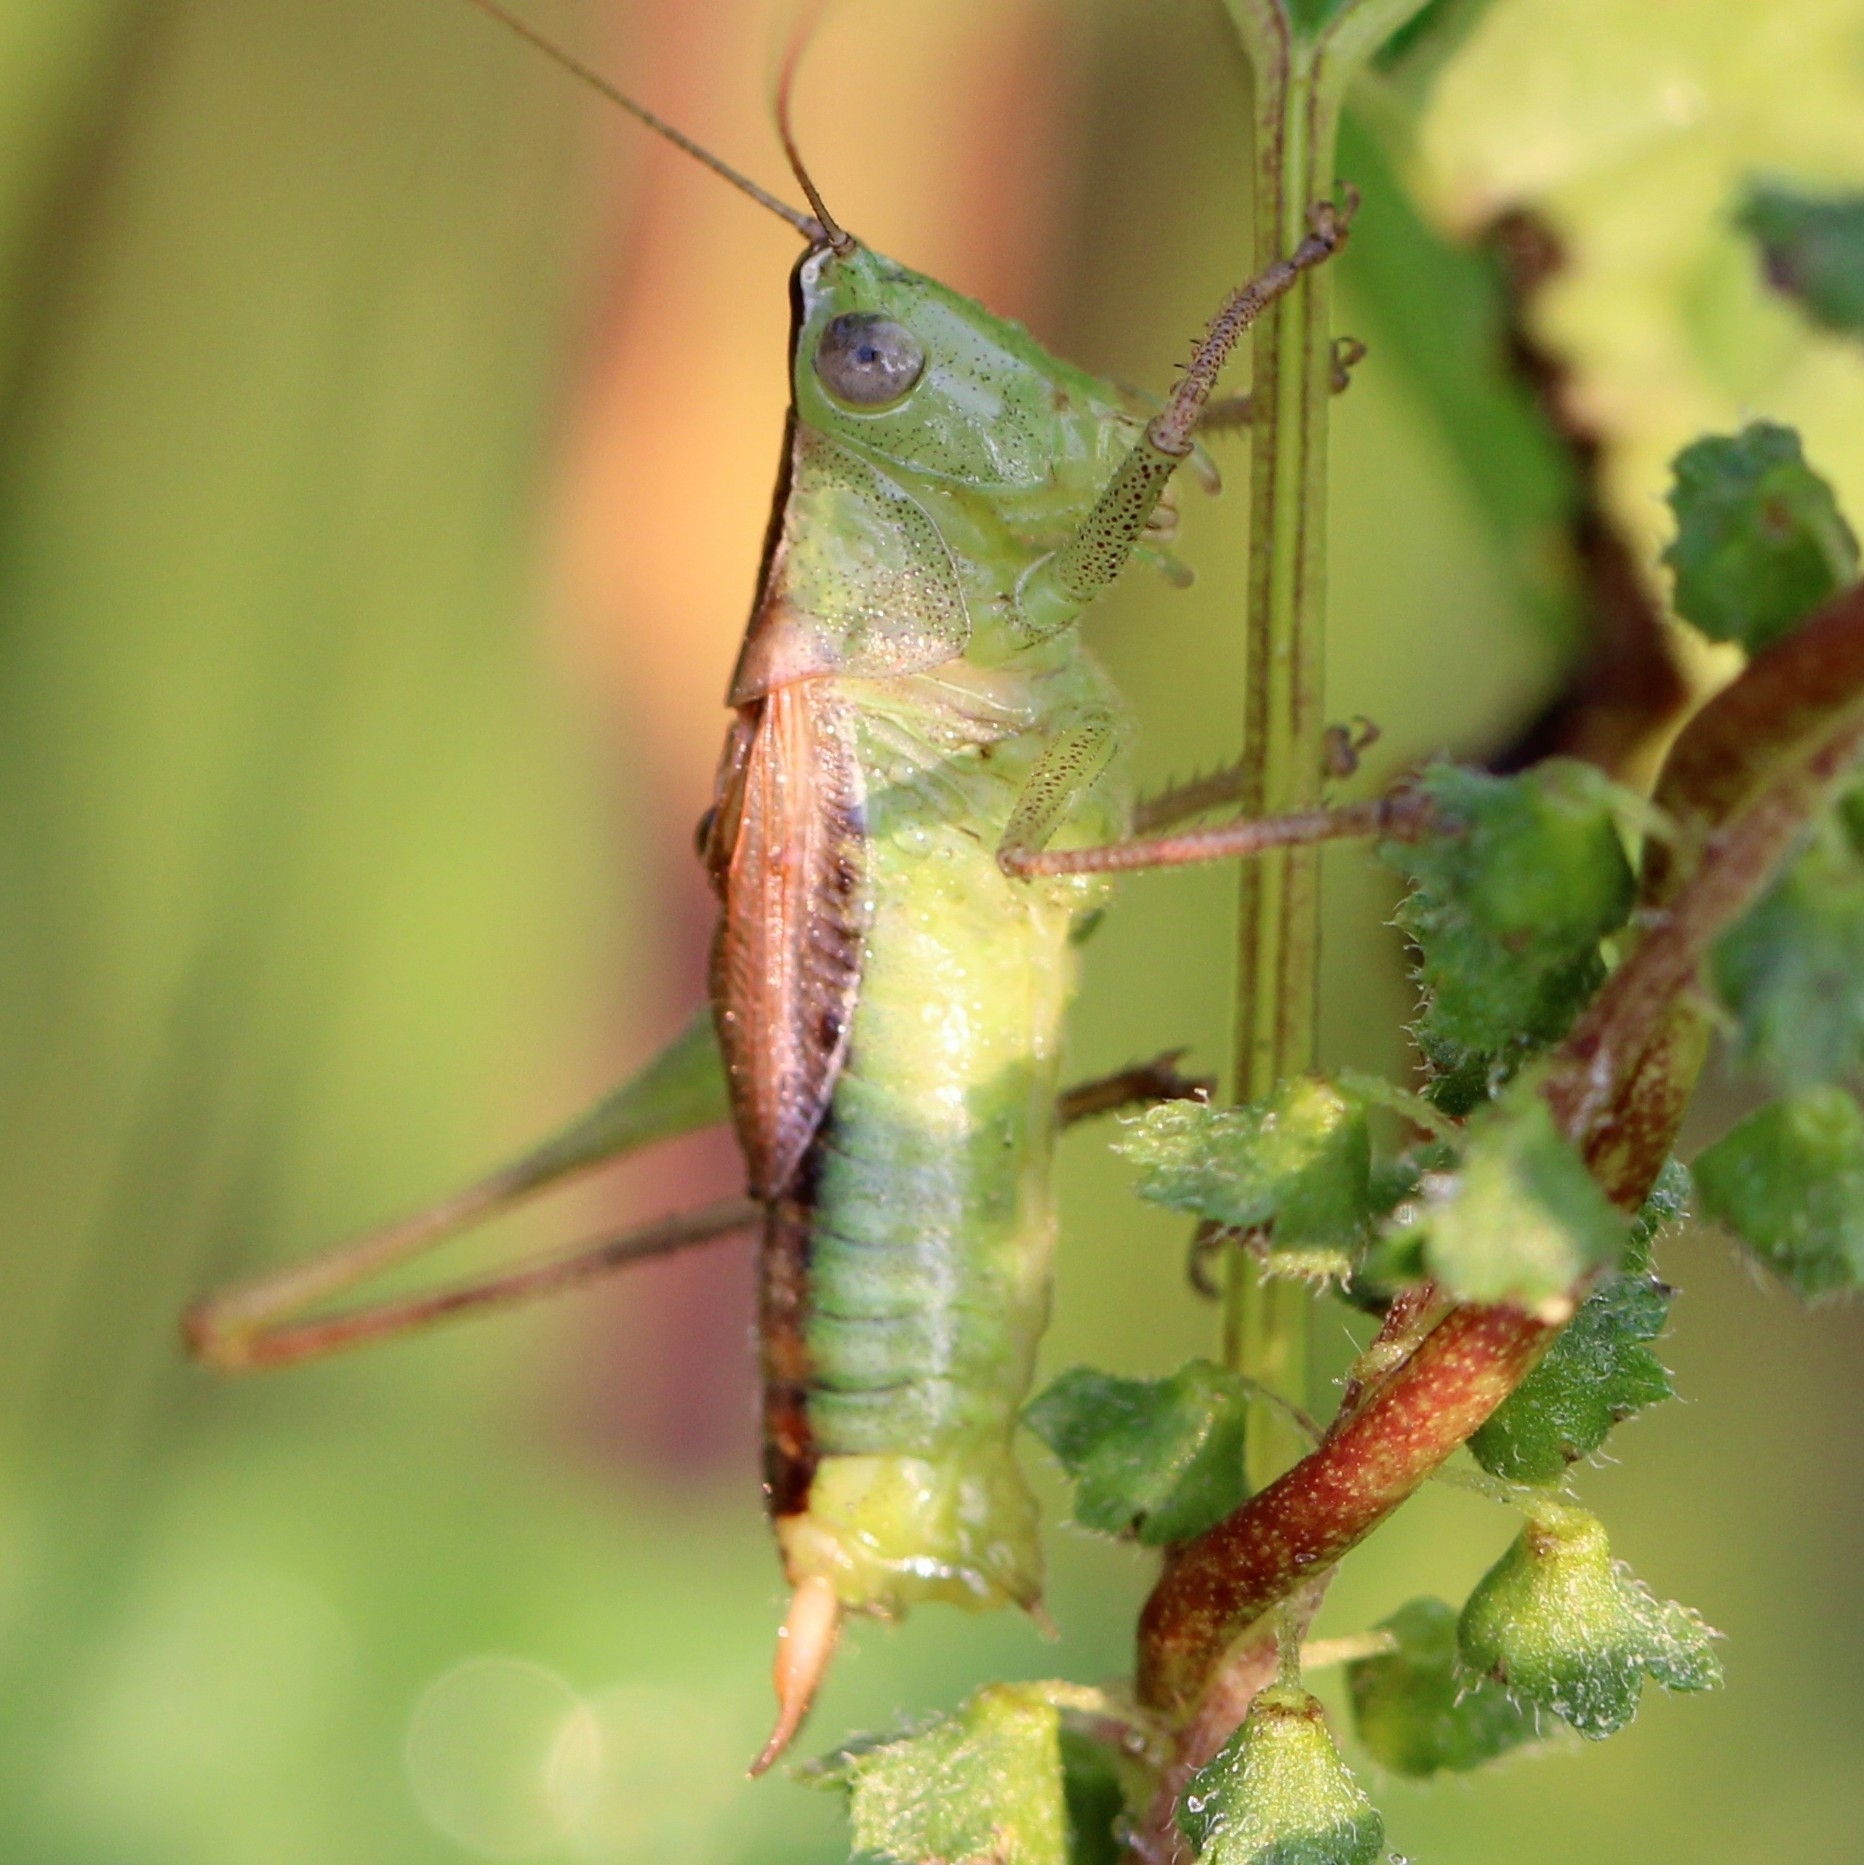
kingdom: Animalia
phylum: Arthropoda
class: Insecta
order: Orthoptera
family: Tettigoniidae
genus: Conocephalus
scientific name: Conocephalus strictus
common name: Straight-lanced katydid
